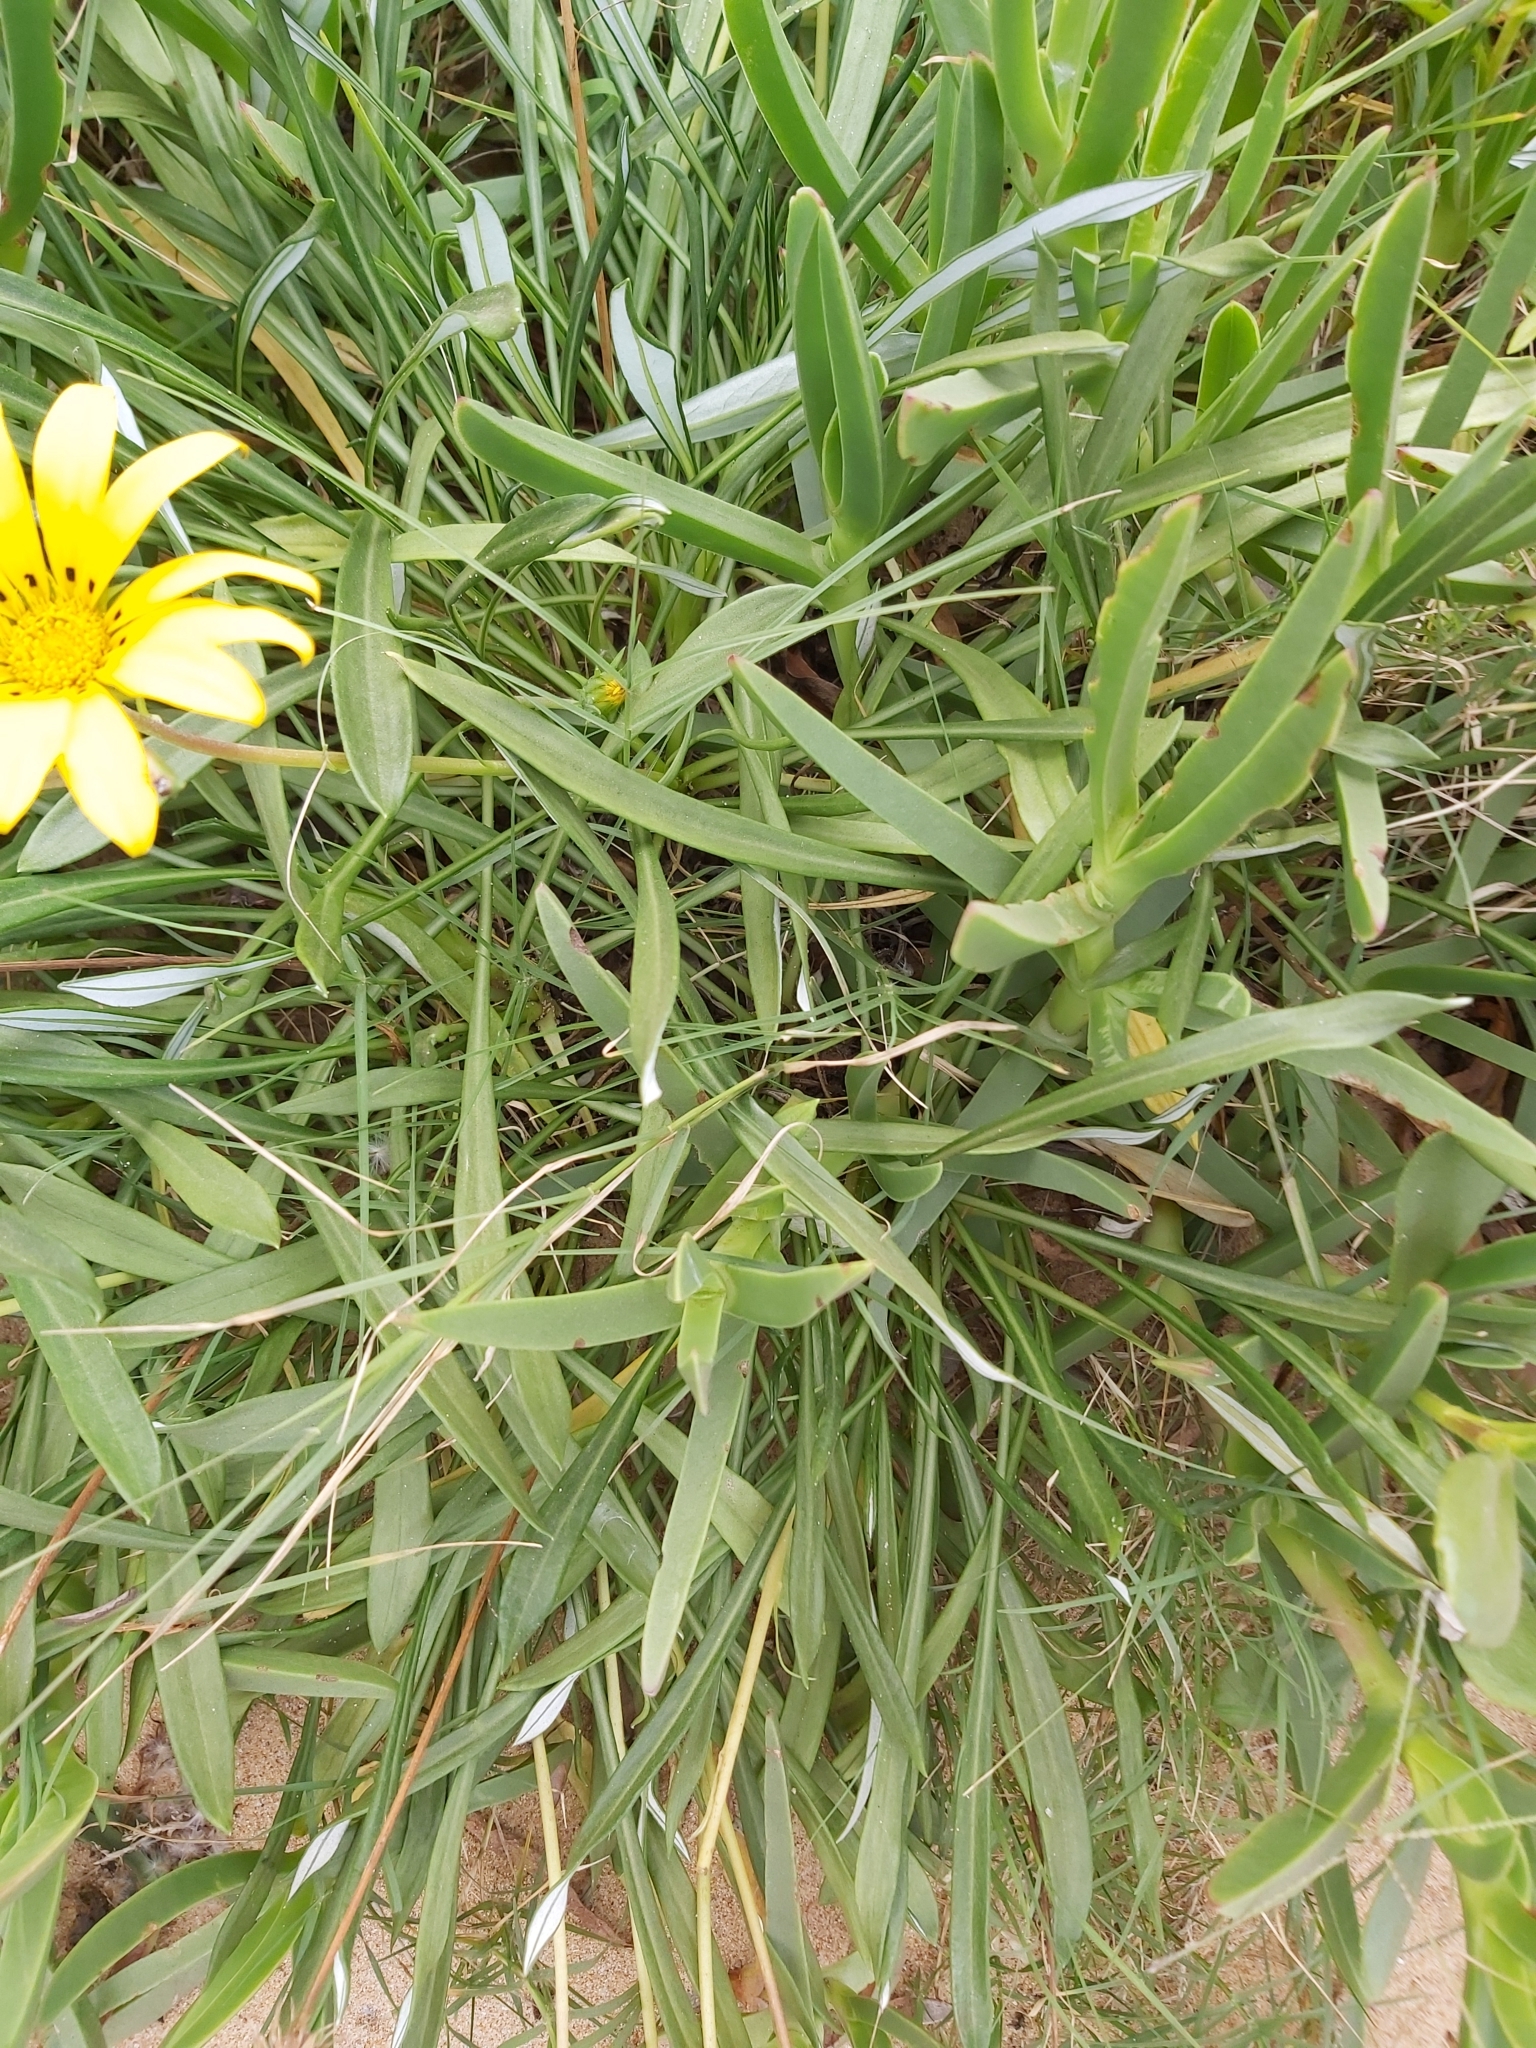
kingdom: Plantae
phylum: Tracheophyta
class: Magnoliopsida
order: Asterales
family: Asteraceae
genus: Gazania
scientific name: Gazania splendens
